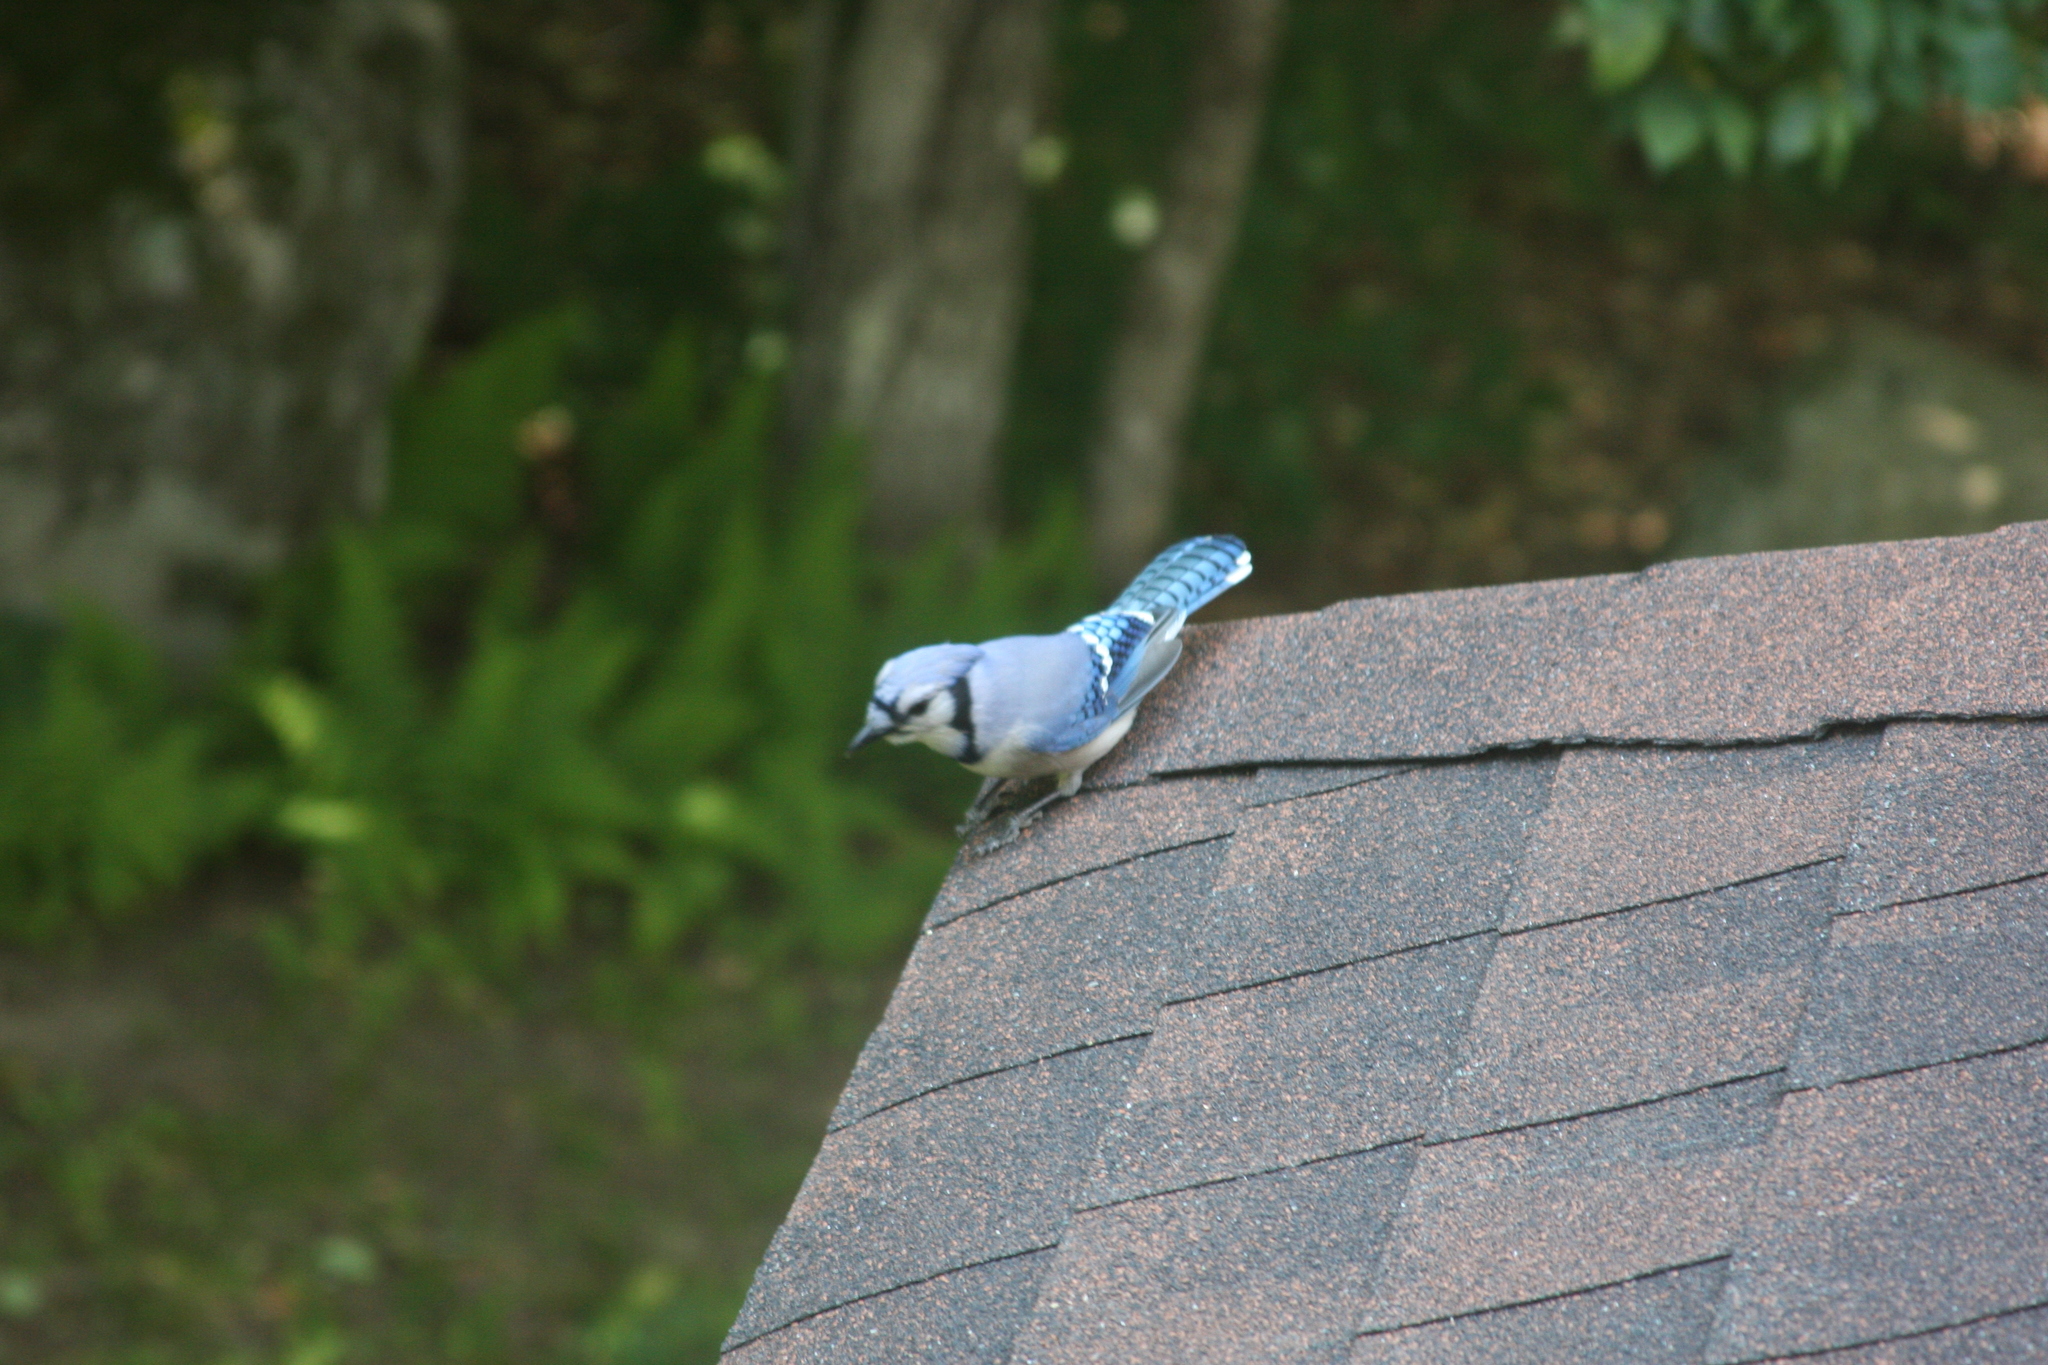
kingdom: Animalia
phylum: Chordata
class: Aves
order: Passeriformes
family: Corvidae
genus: Cyanocitta
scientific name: Cyanocitta cristata
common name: Blue jay
